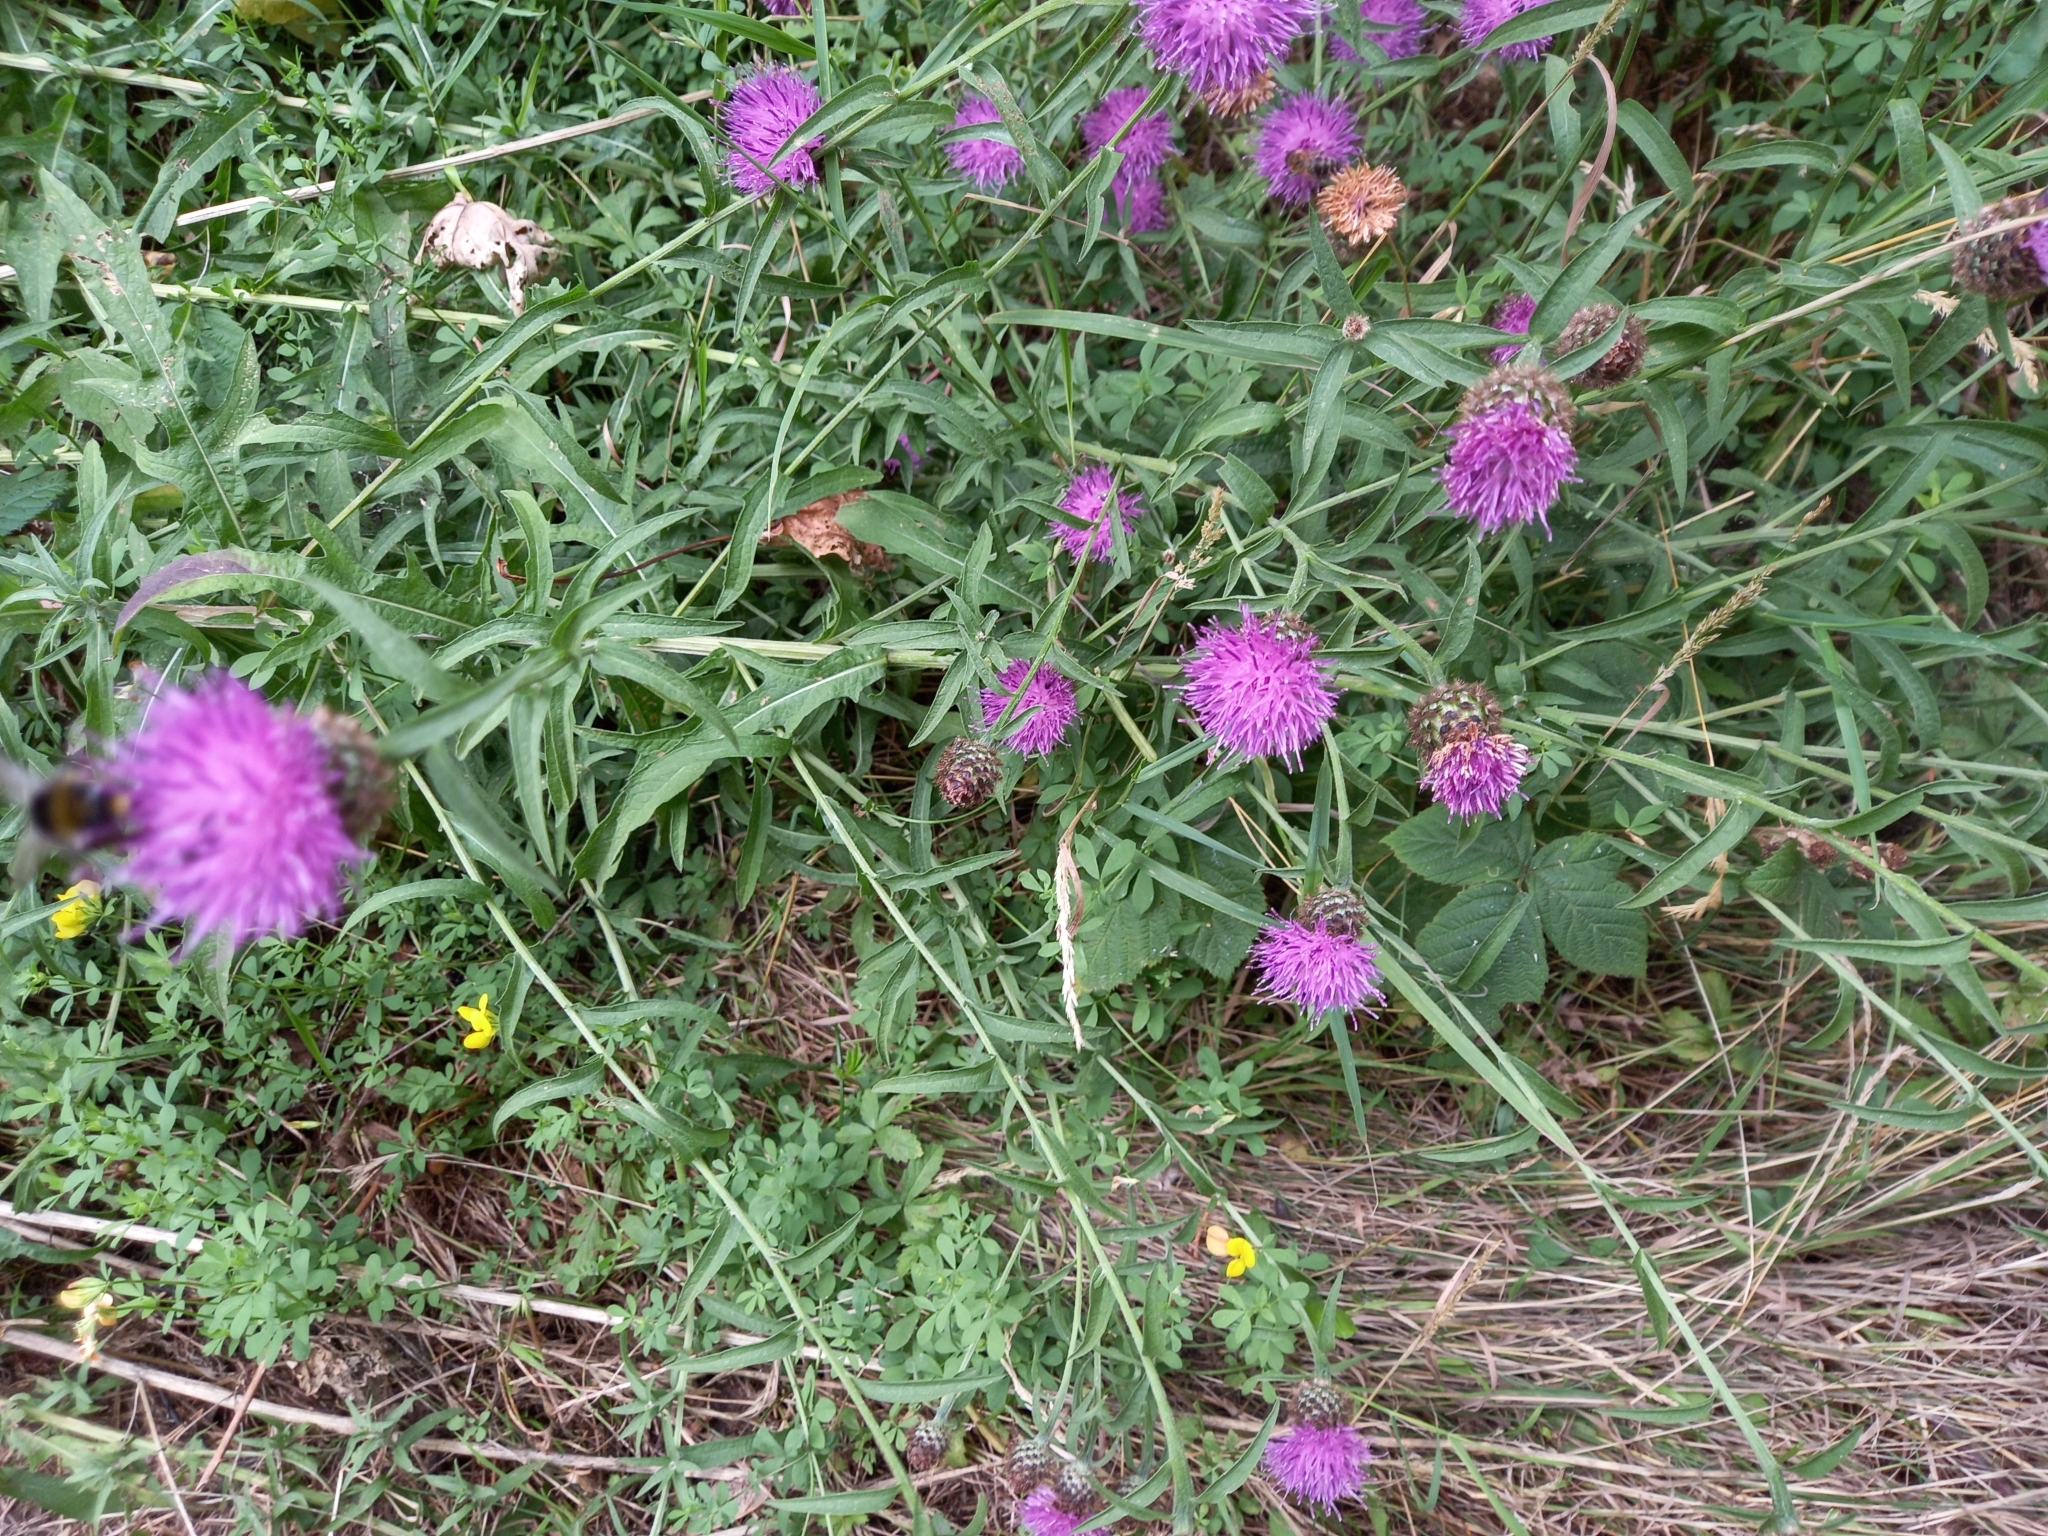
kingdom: Plantae
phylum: Tracheophyta
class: Magnoliopsida
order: Asterales
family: Asteraceae
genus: Centaurea
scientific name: Centaurea nigra
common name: Lesser knapweed
